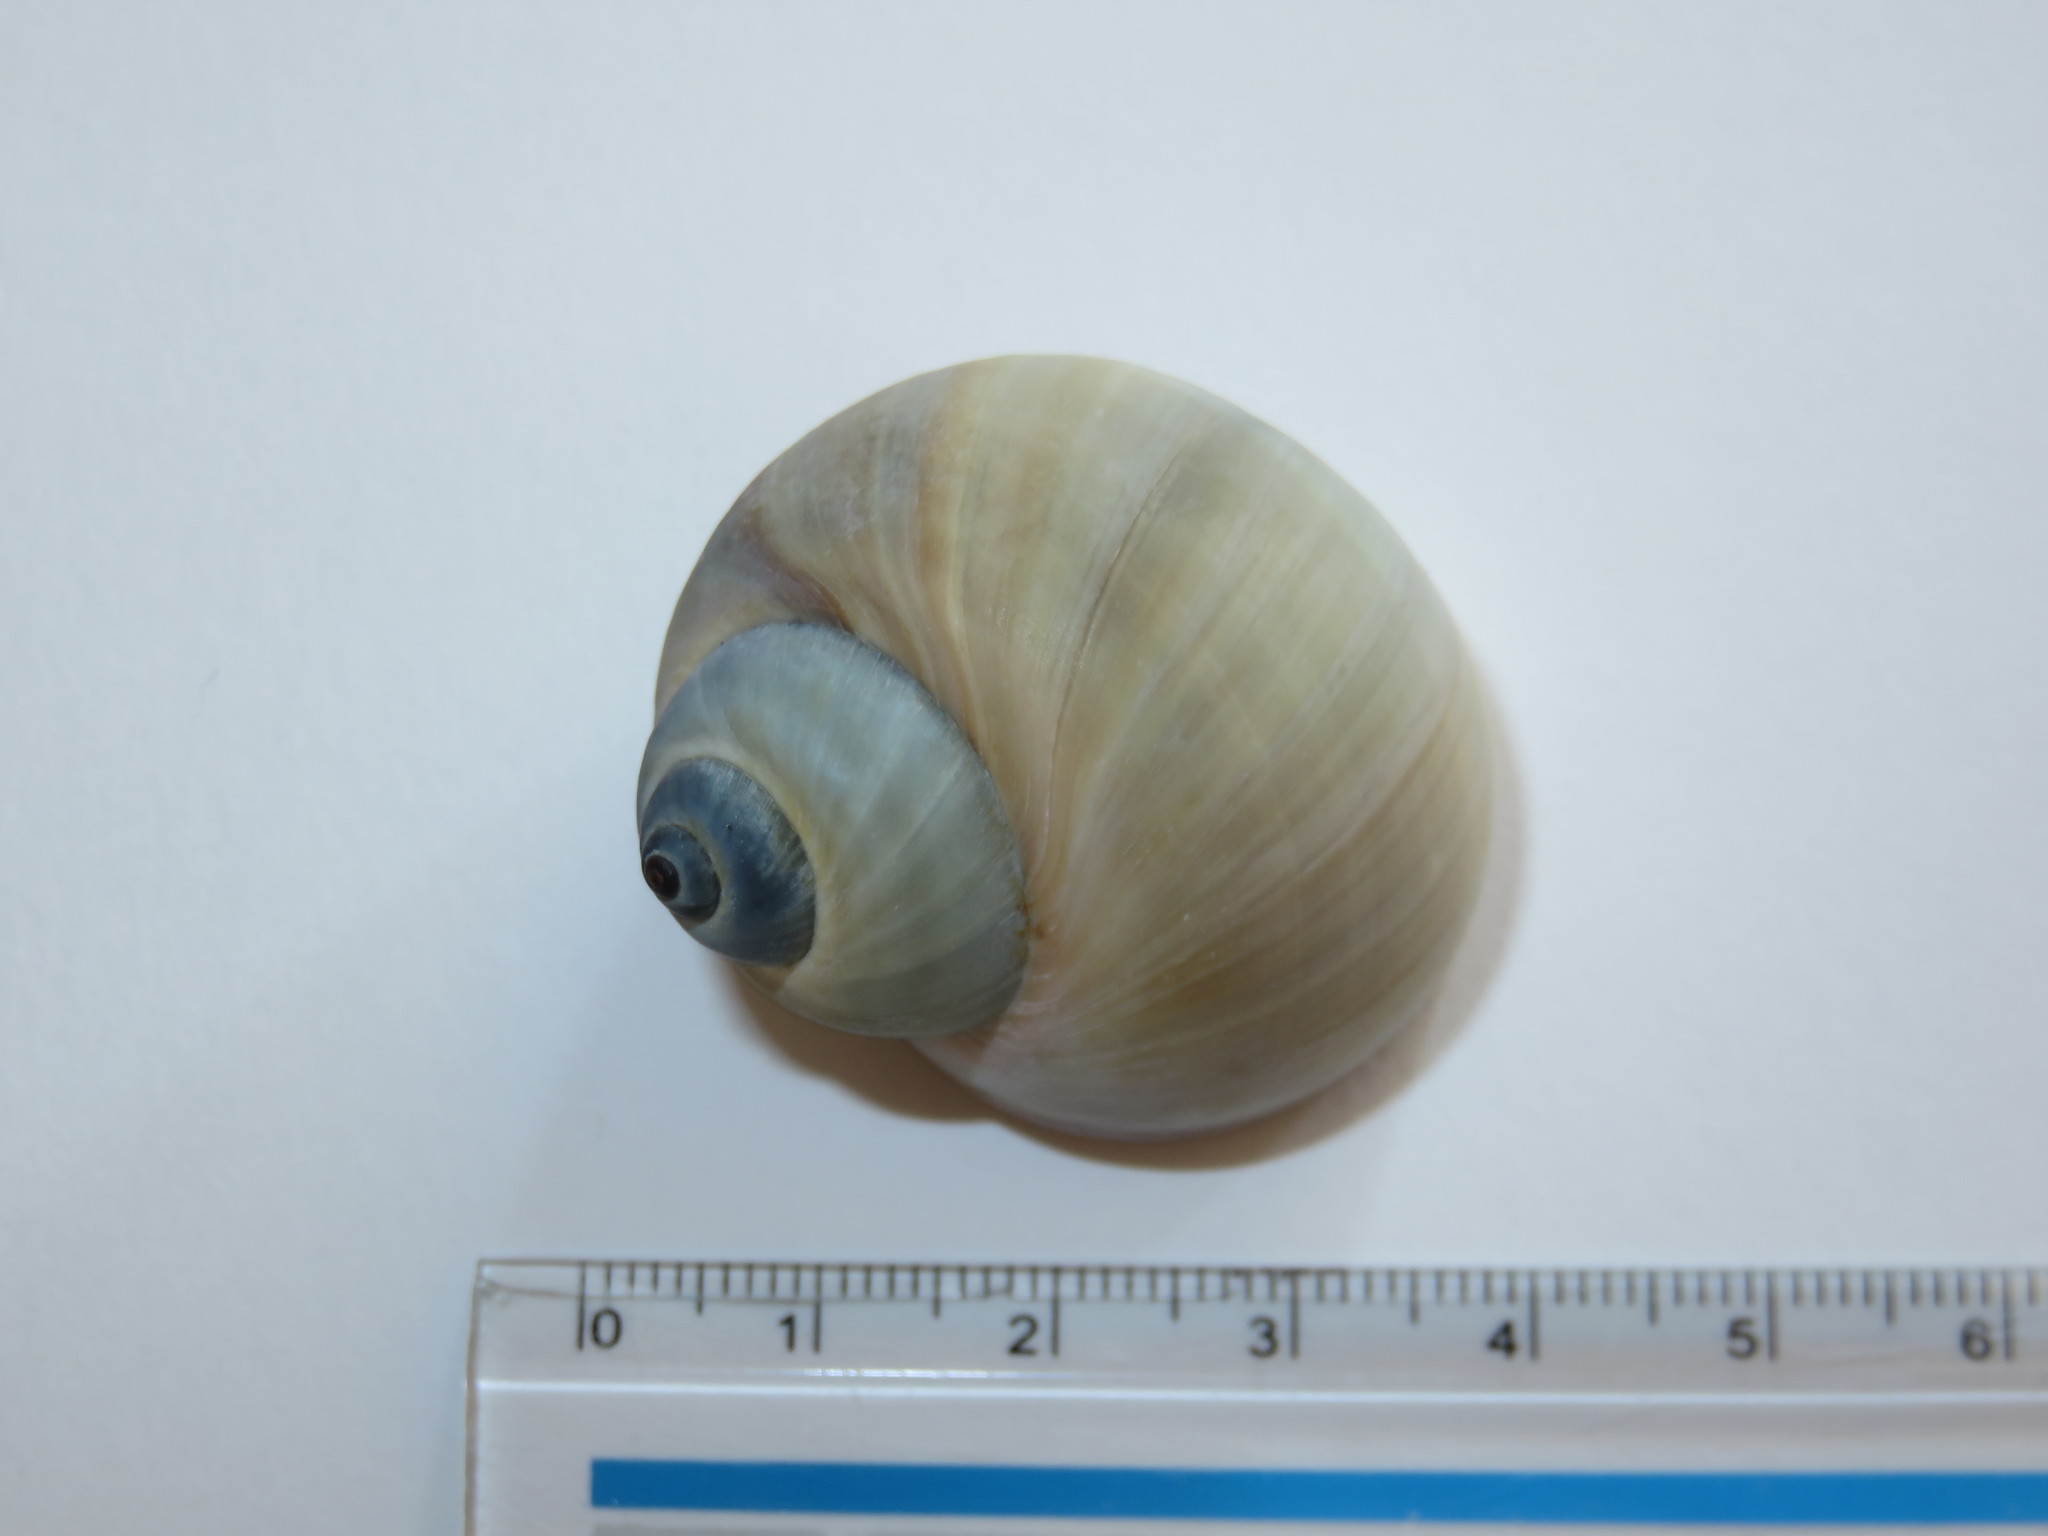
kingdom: Animalia
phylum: Mollusca
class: Gastropoda
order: Littorinimorpha
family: Naticidae
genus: Laguncula
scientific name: Laguncula pulchella
